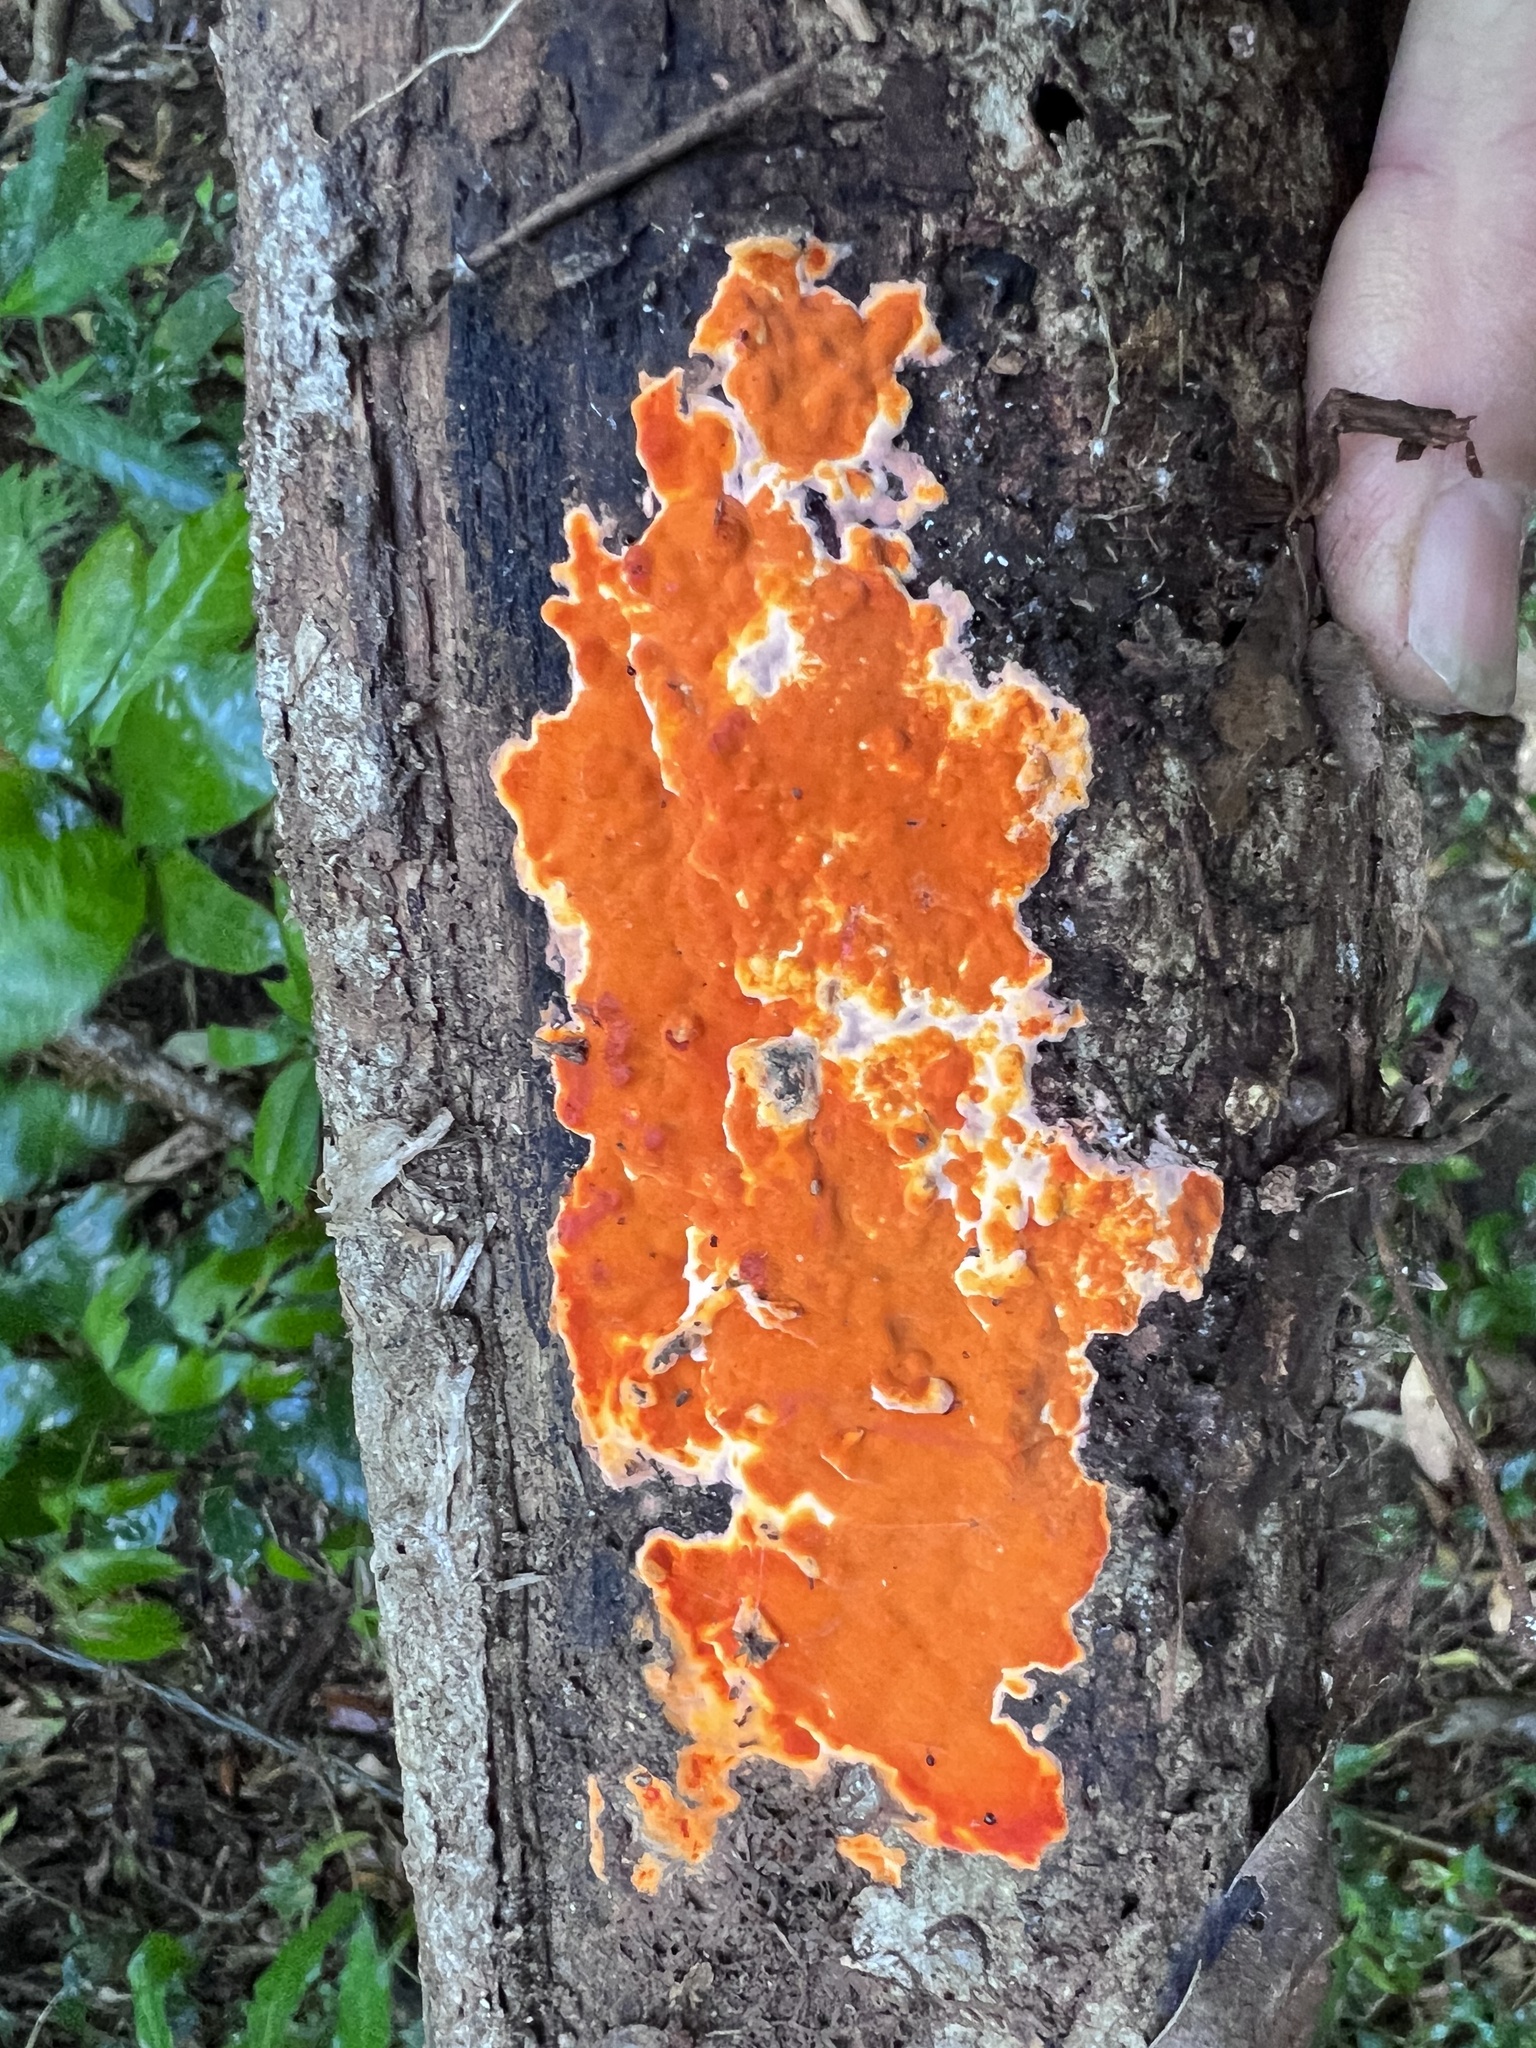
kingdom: Fungi
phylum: Basidiomycota
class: Agaricomycetes
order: Polyporales
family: Irpicaceae
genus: Ceriporia
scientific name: Ceriporia spissa
